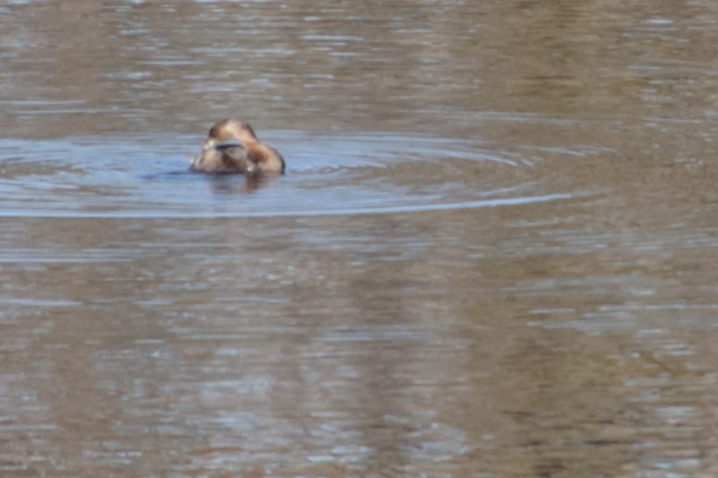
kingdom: Animalia
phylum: Chordata
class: Aves
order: Podicipediformes
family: Podicipedidae
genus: Podilymbus
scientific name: Podilymbus podiceps
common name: Pied-billed grebe
